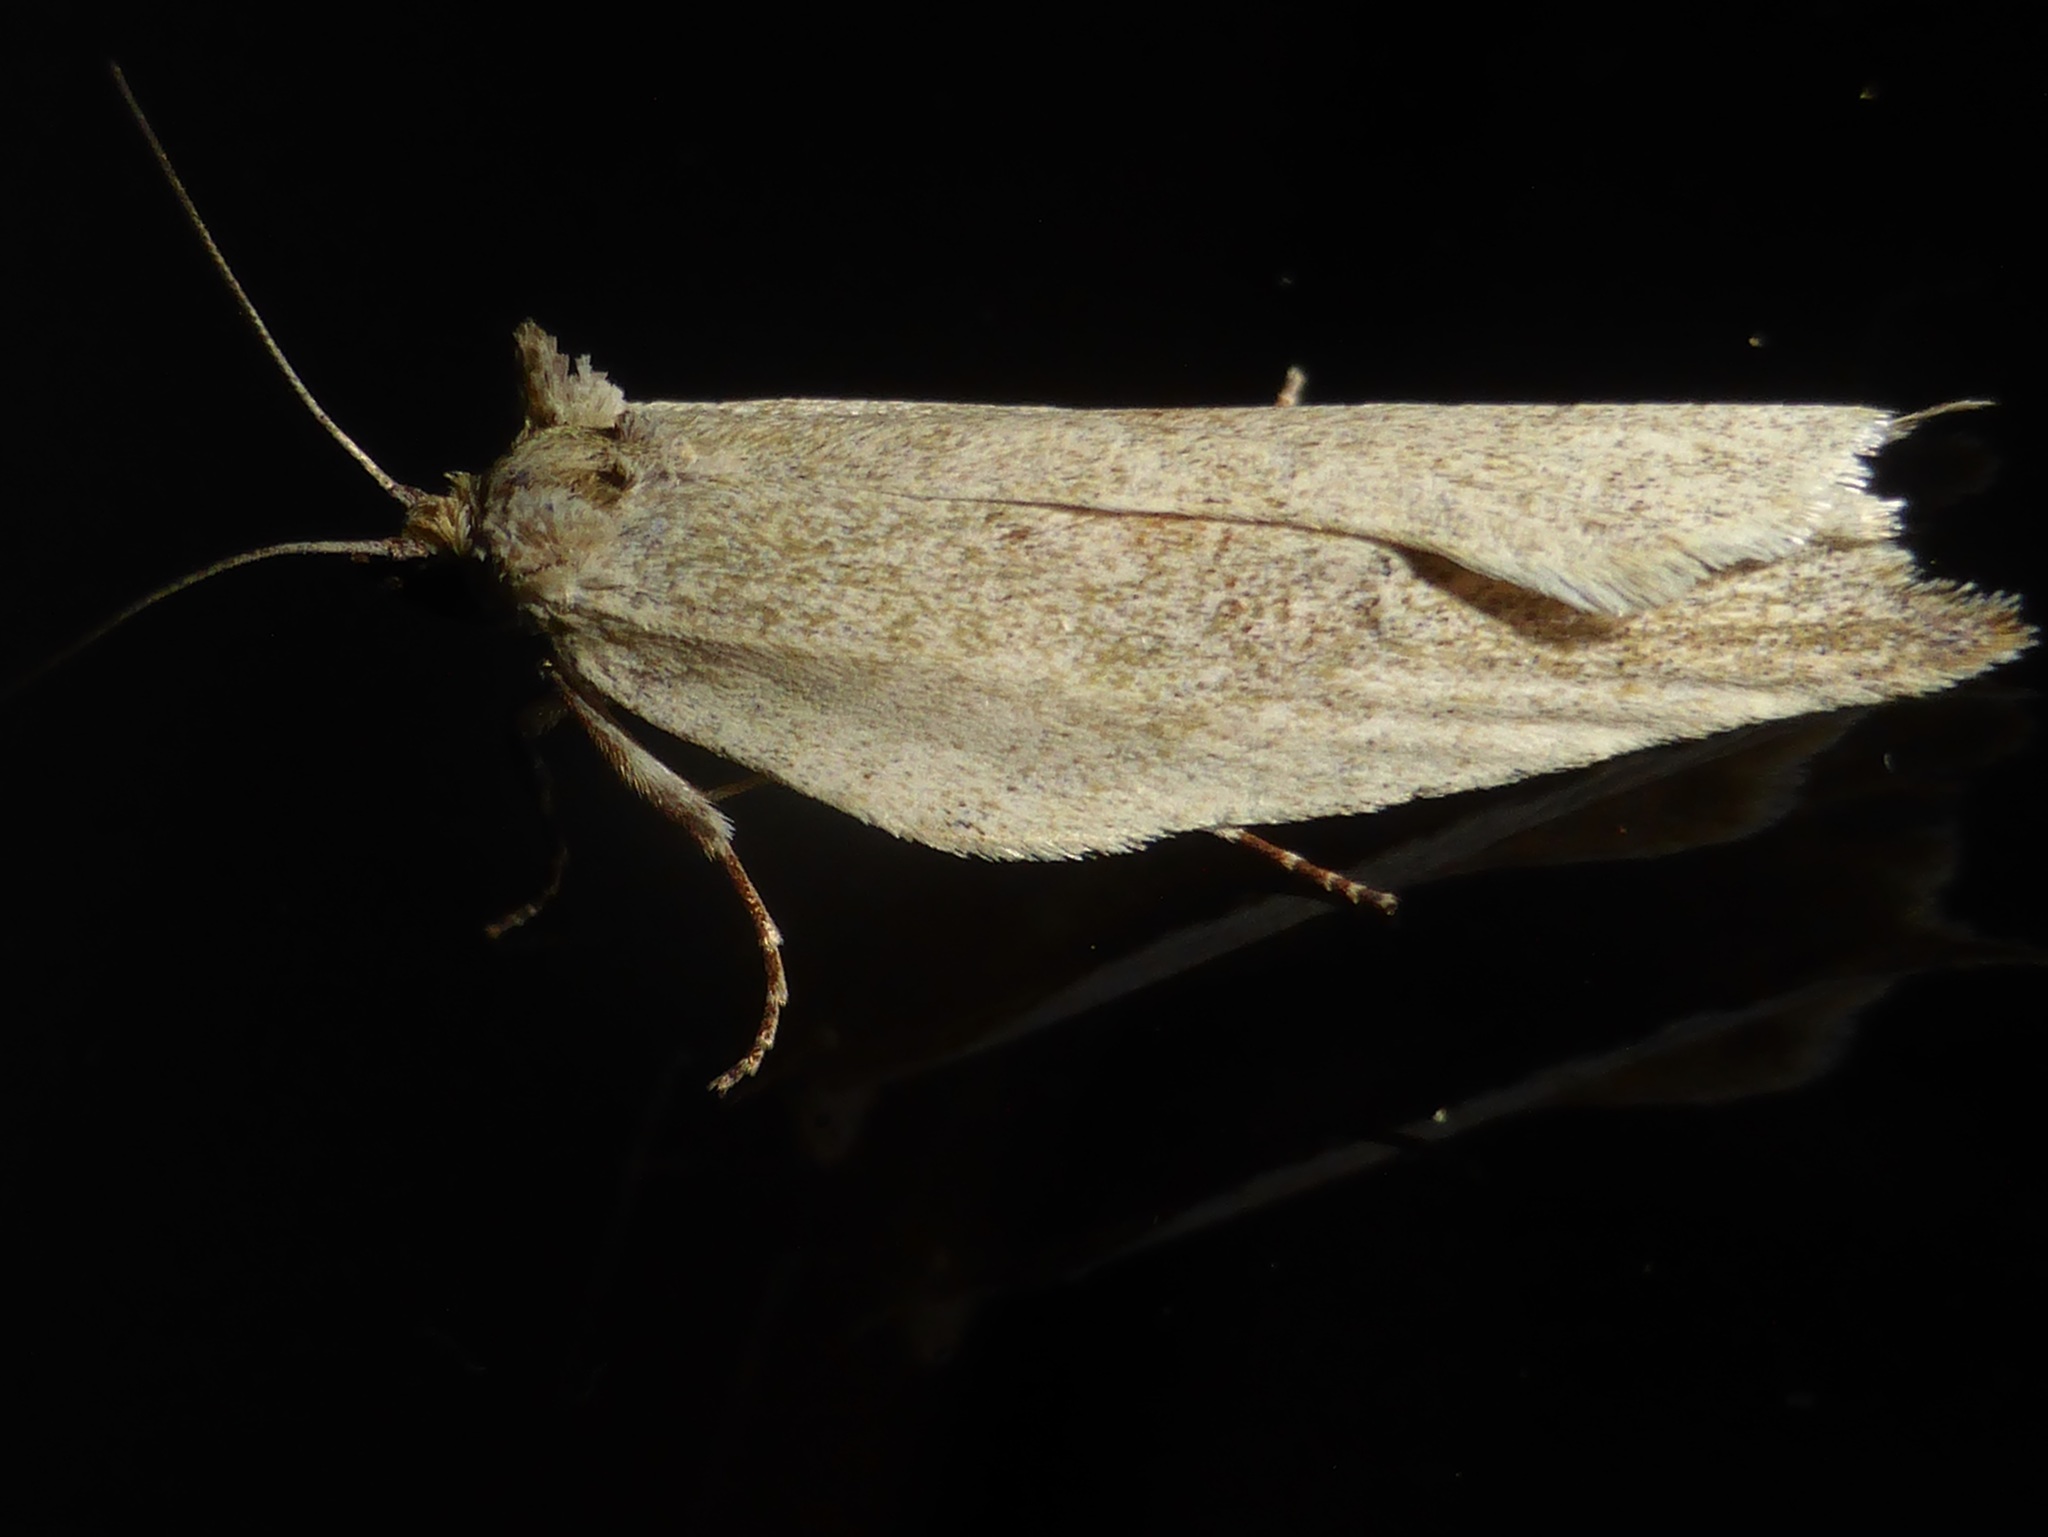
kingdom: Animalia
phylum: Arthropoda
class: Insecta
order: Lepidoptera
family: Tortricidae
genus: Epalxiphora
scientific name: Epalxiphora axenana
